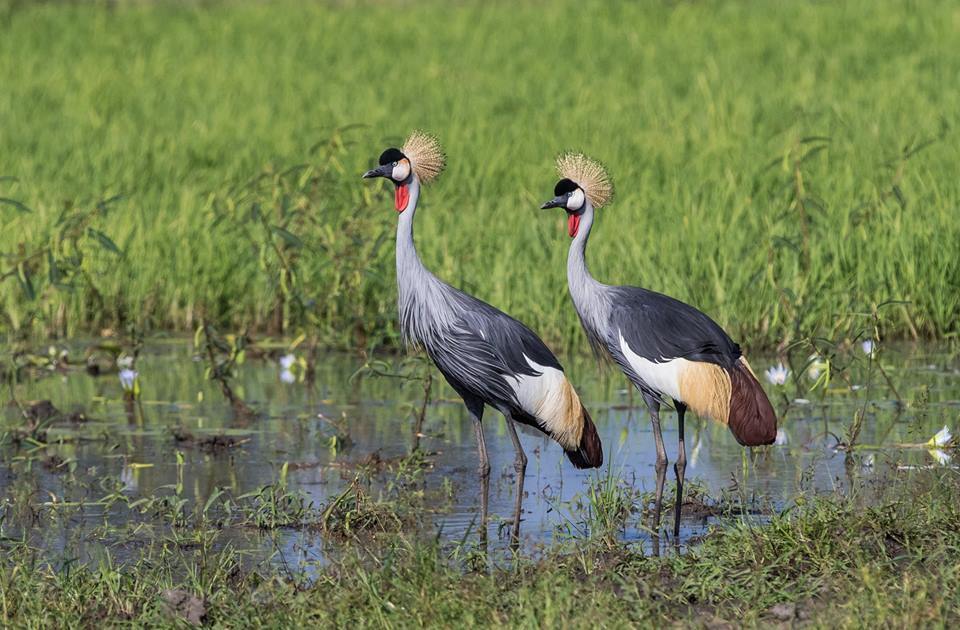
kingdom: Animalia
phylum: Chordata
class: Aves
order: Gruiformes
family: Gruidae
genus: Balearica
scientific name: Balearica regulorum
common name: Grey crowned crane
